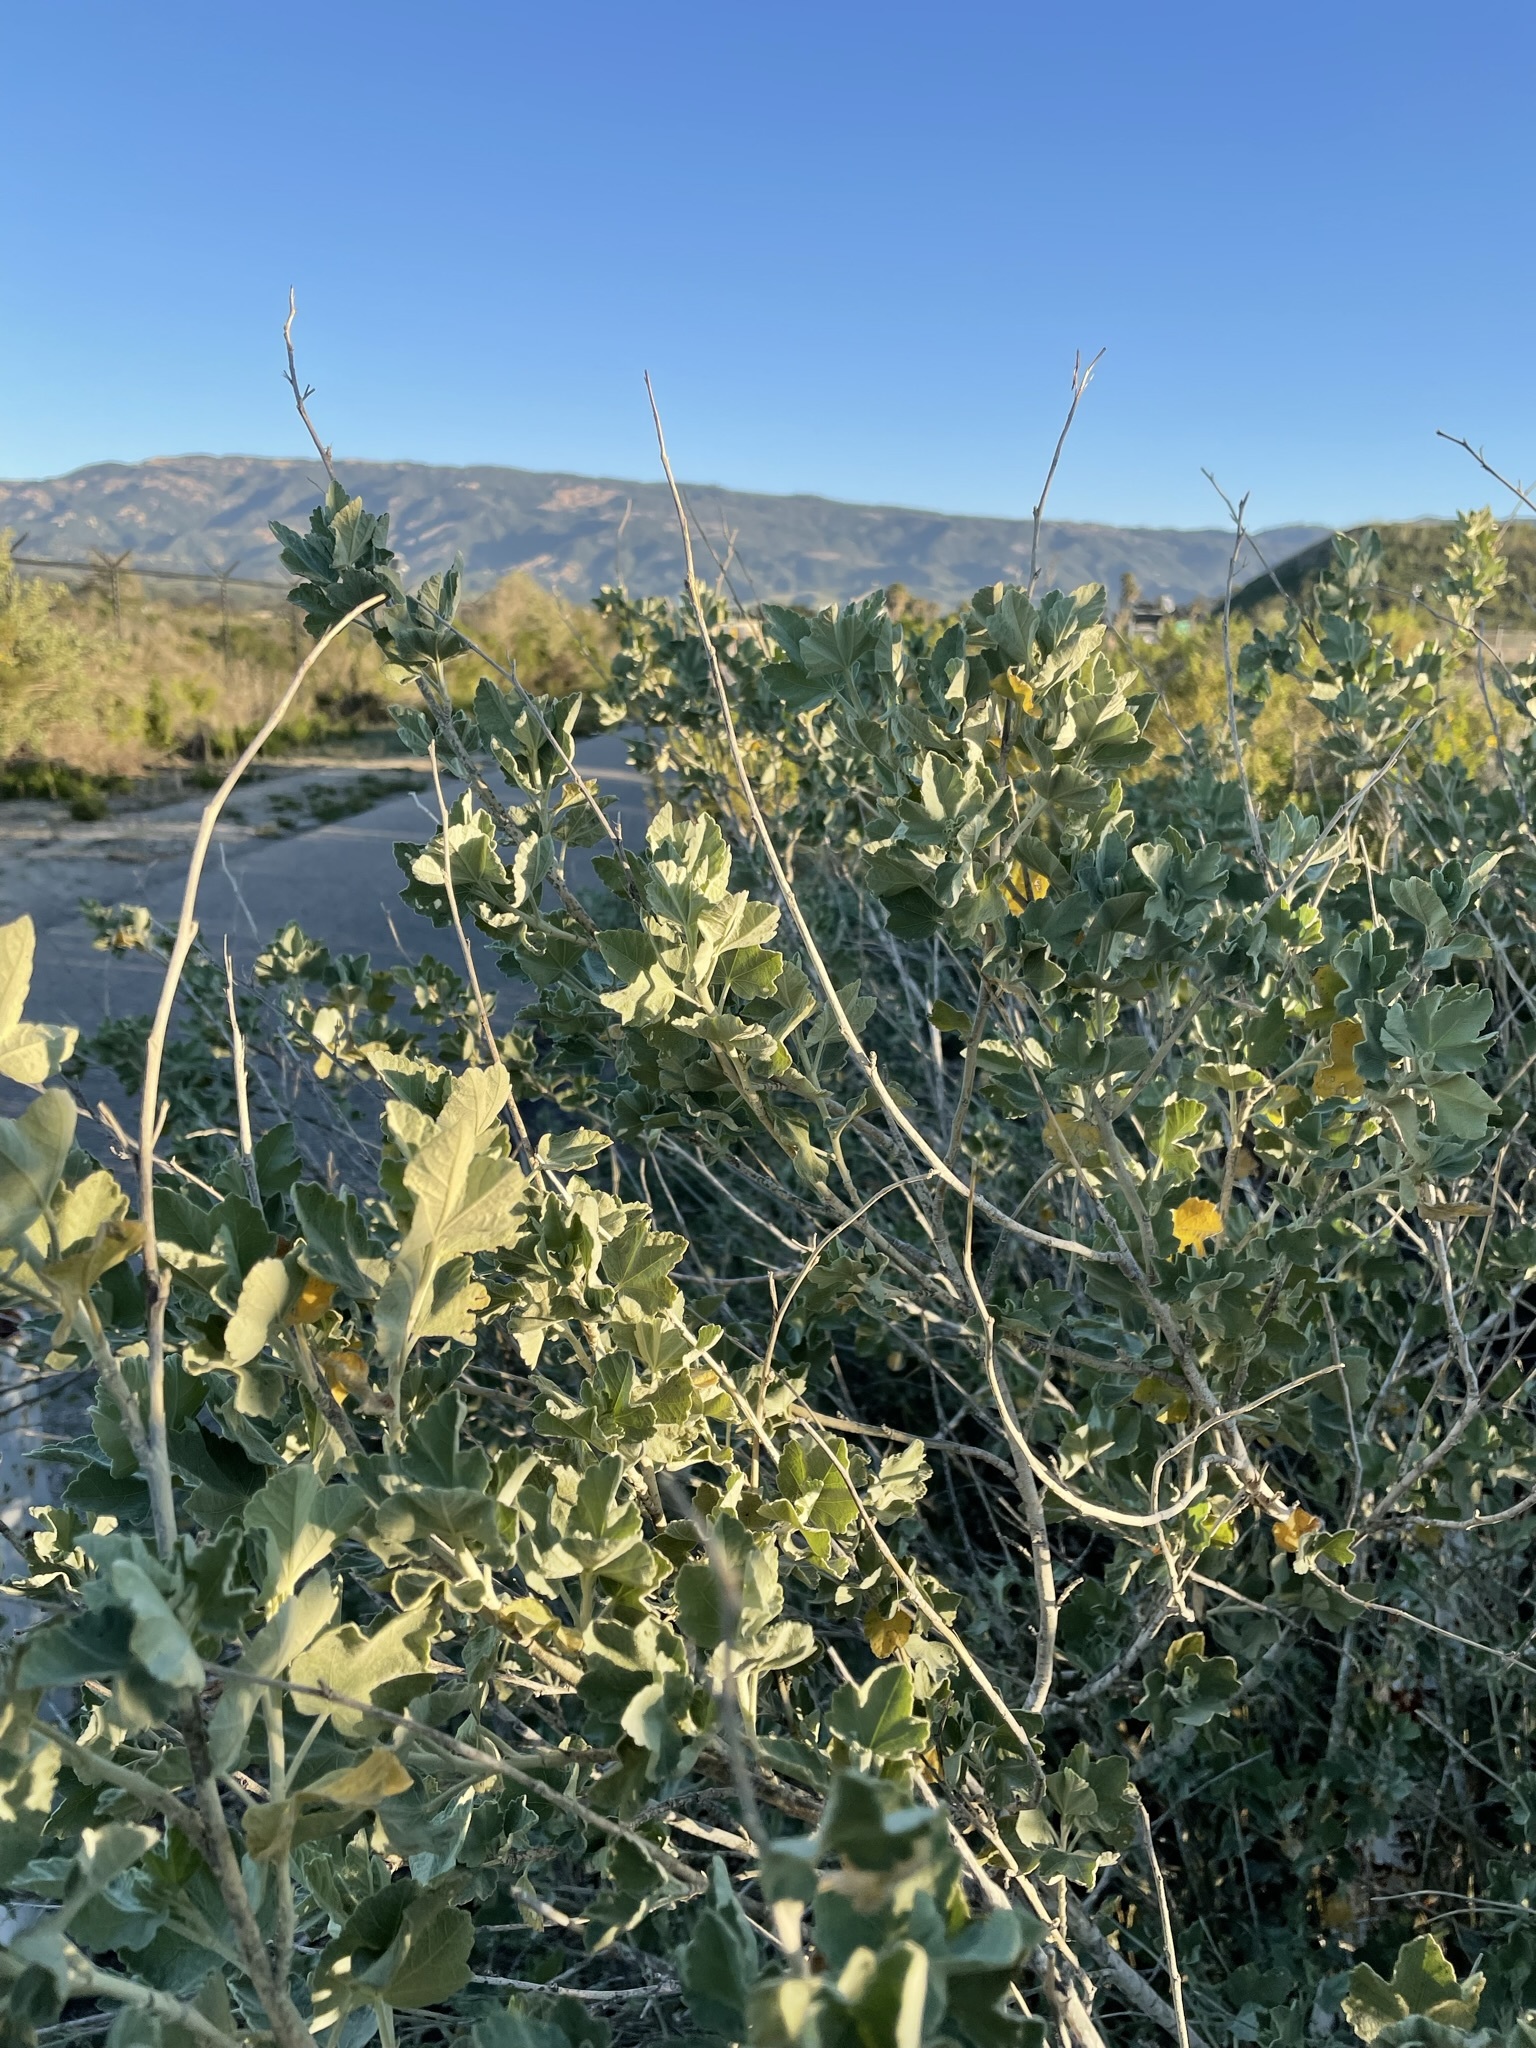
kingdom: Plantae
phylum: Tracheophyta
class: Magnoliopsida
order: Malvales
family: Malvaceae
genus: Malacothamnus
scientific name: Malacothamnus fasciculatus
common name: Sant cruz island bush-mallow
